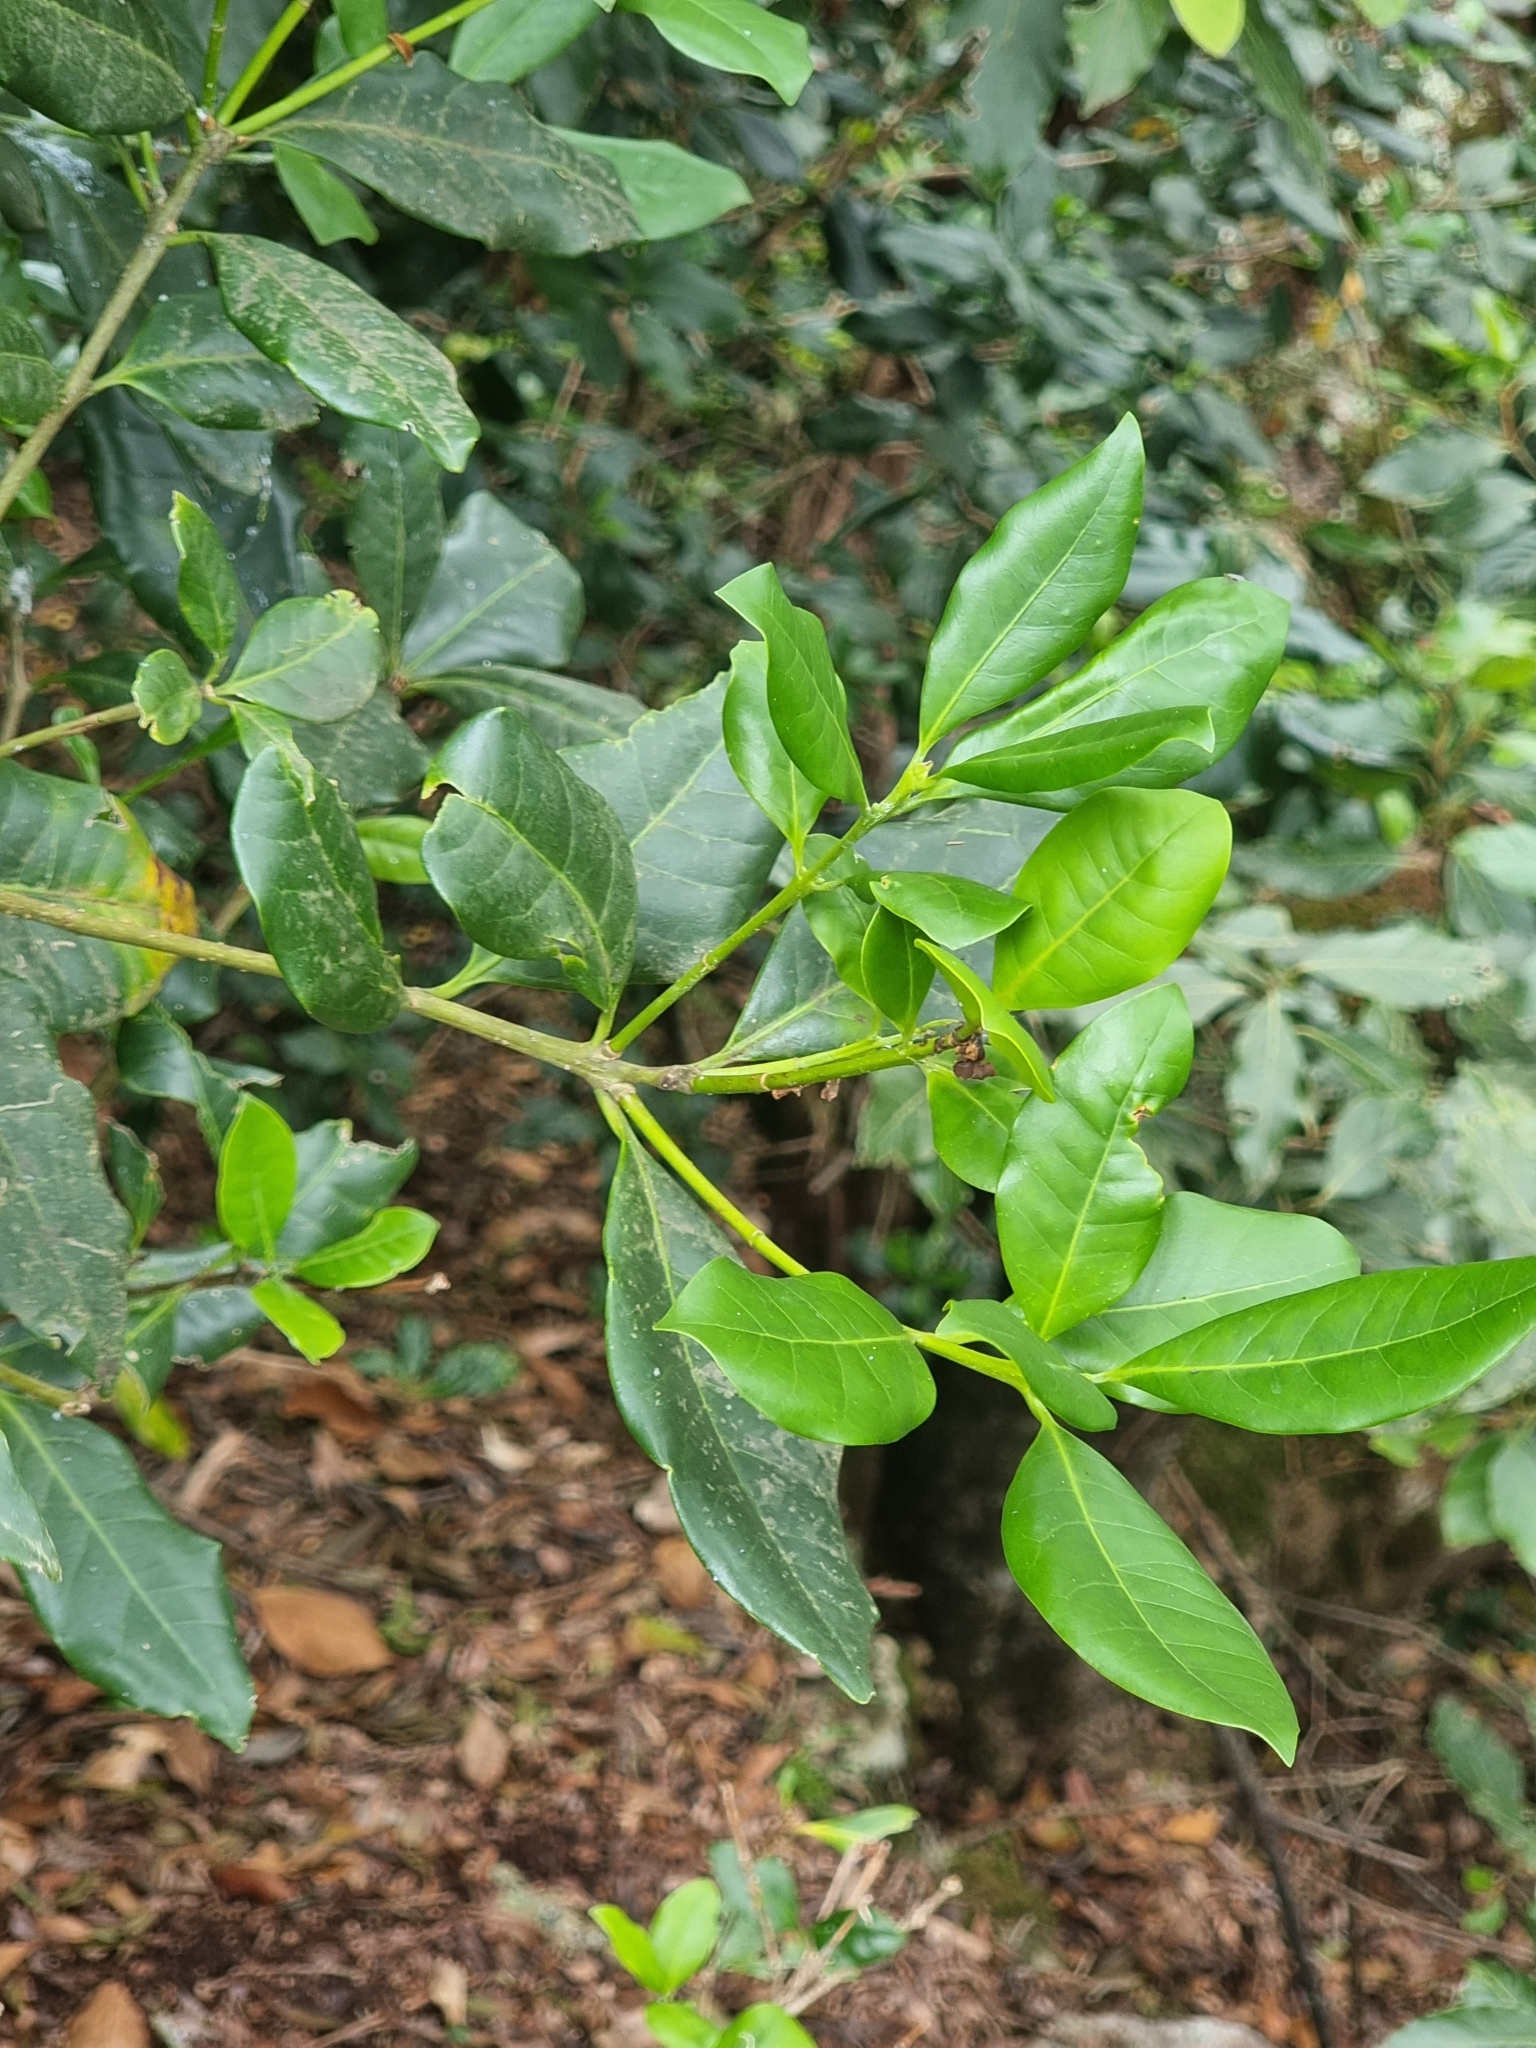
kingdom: Plantae
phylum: Tracheophyta
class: Magnoliopsida
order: Lamiales
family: Oleaceae
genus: Picconia
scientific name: Picconia excelsa
